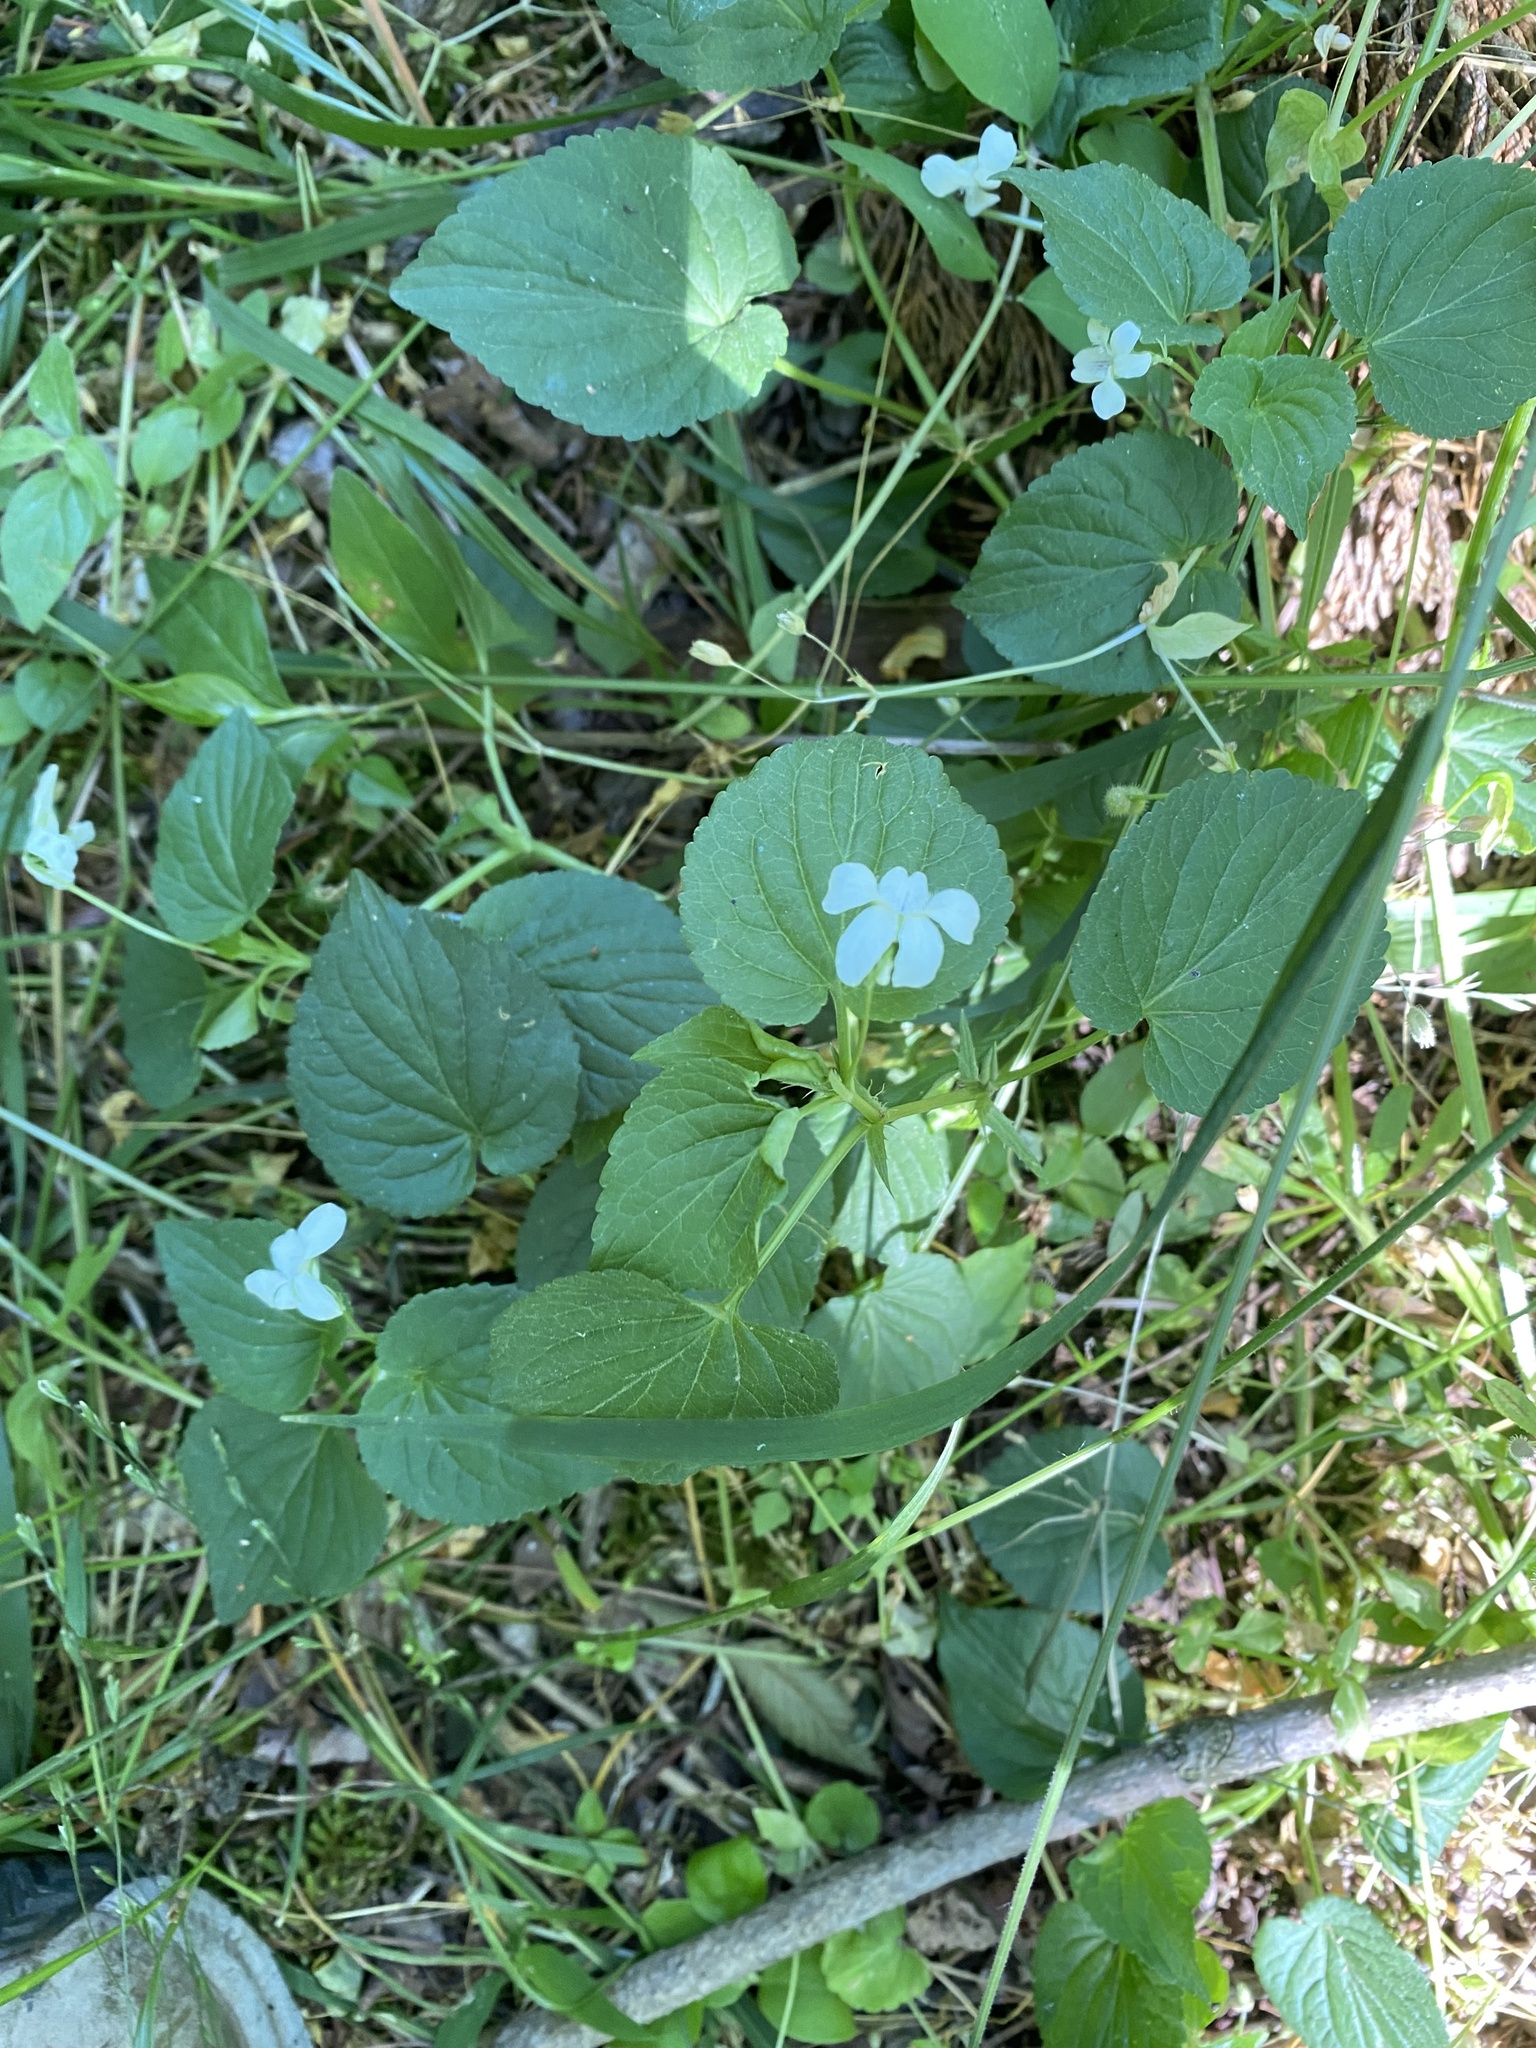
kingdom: Plantae
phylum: Tracheophyta
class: Magnoliopsida
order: Malpighiales
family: Violaceae
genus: Viola
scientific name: Viola striata
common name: Cream violet
